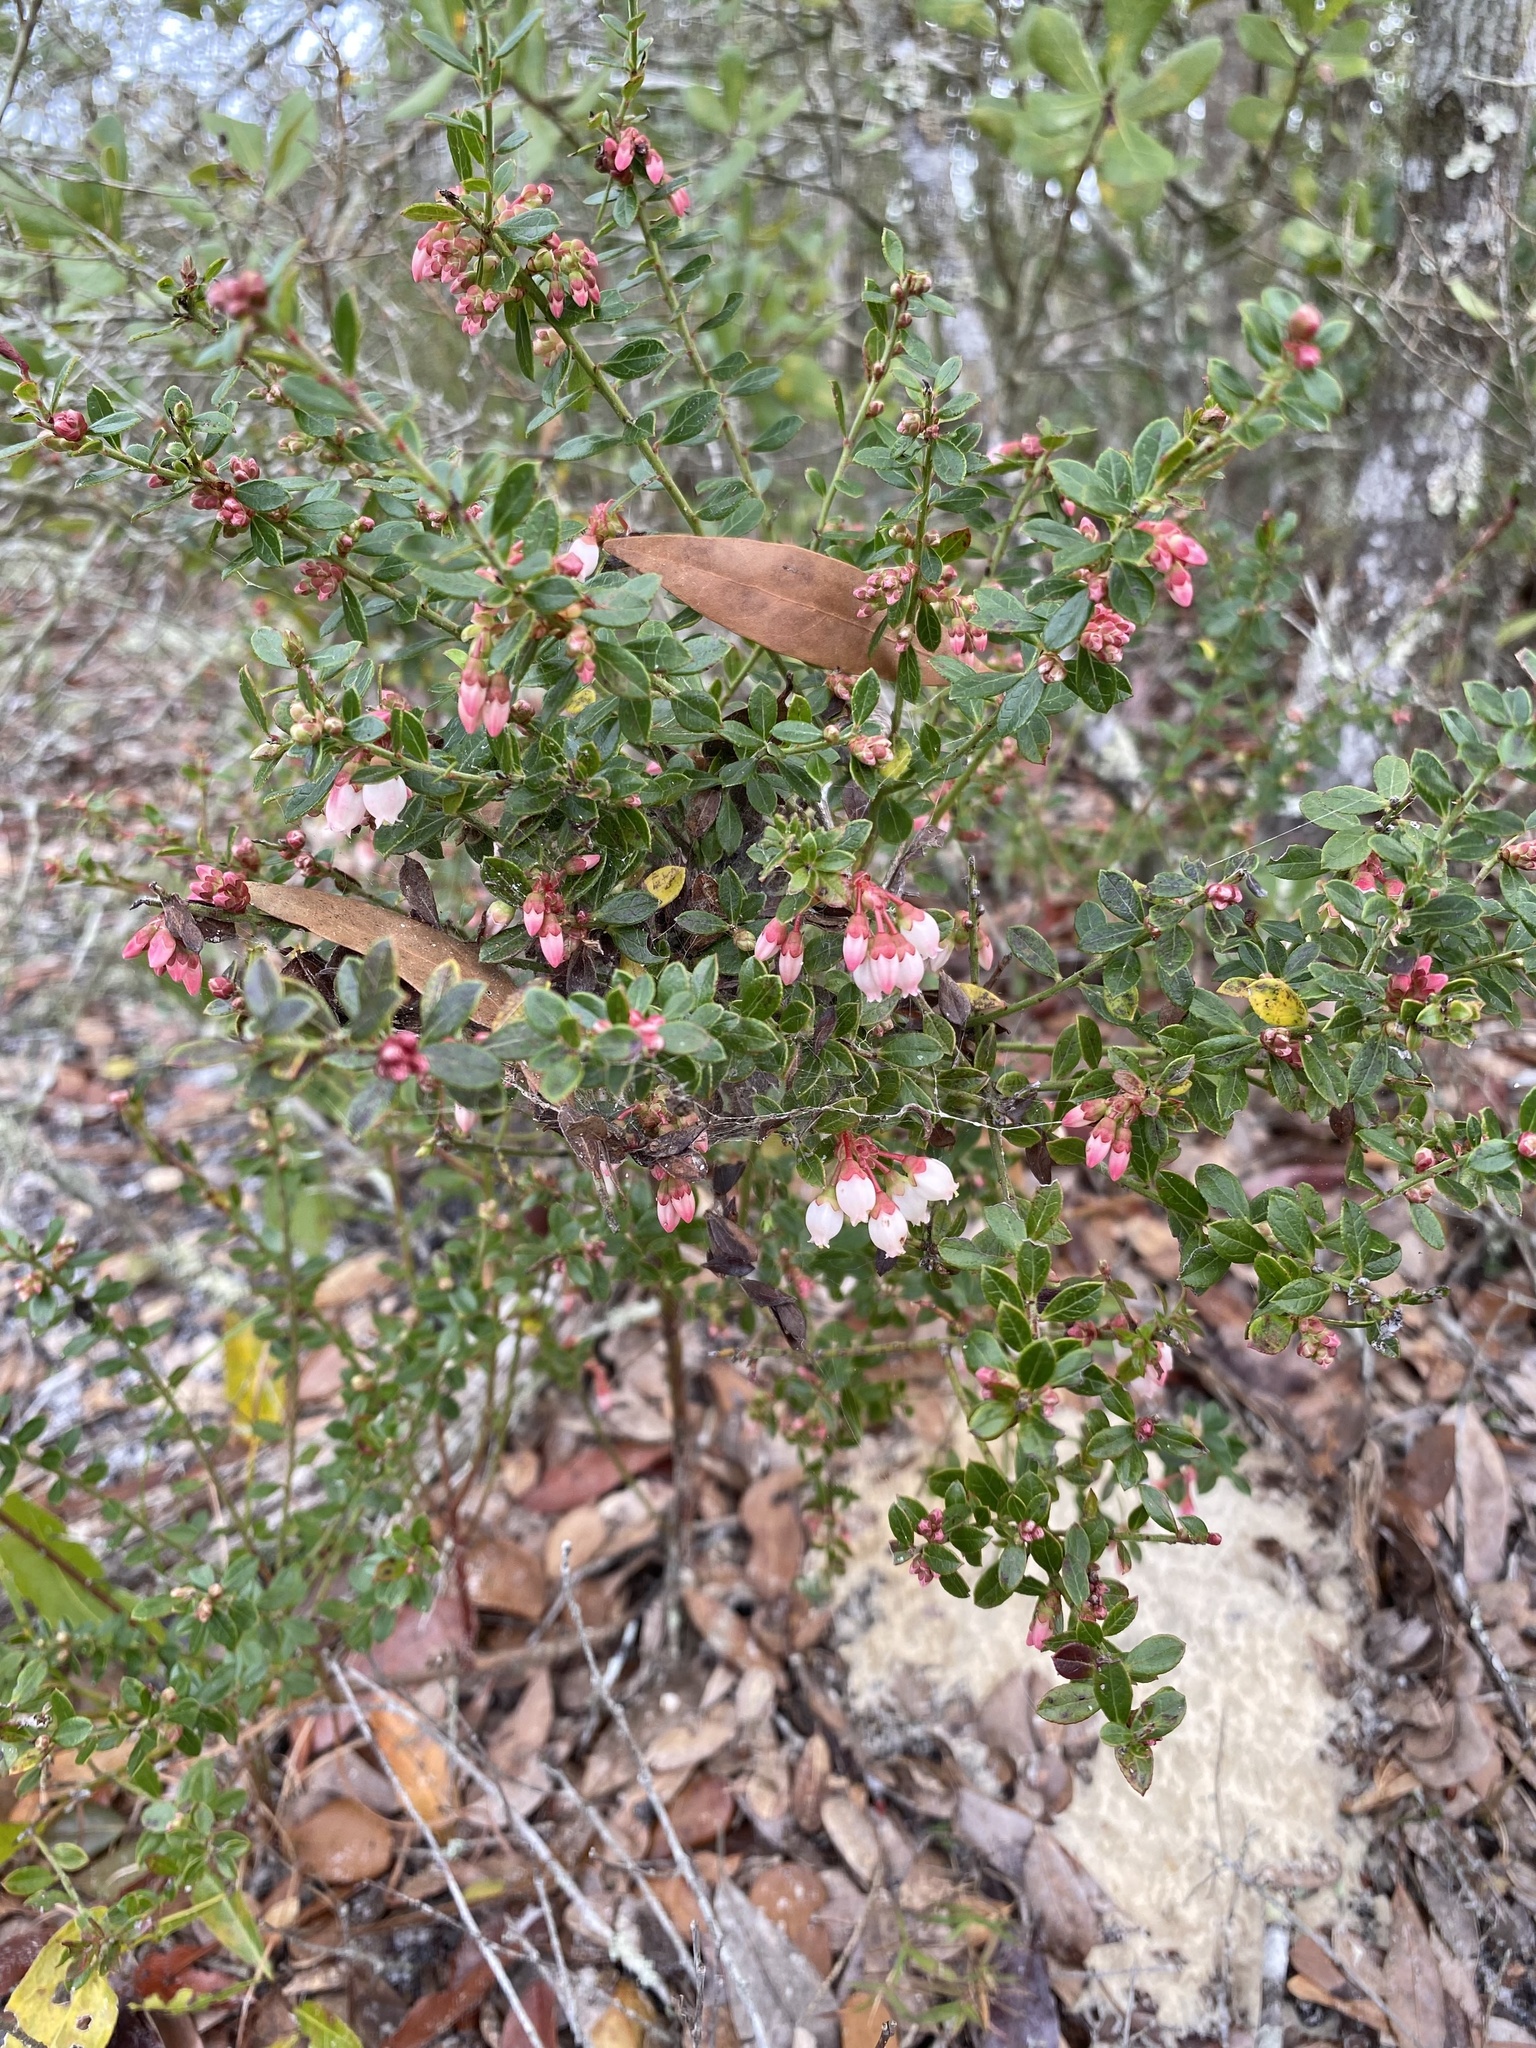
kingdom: Plantae
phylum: Tracheophyta
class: Magnoliopsida
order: Ericales
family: Ericaceae
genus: Vaccinium
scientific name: Vaccinium myrsinites
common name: Evergreen blueberry
